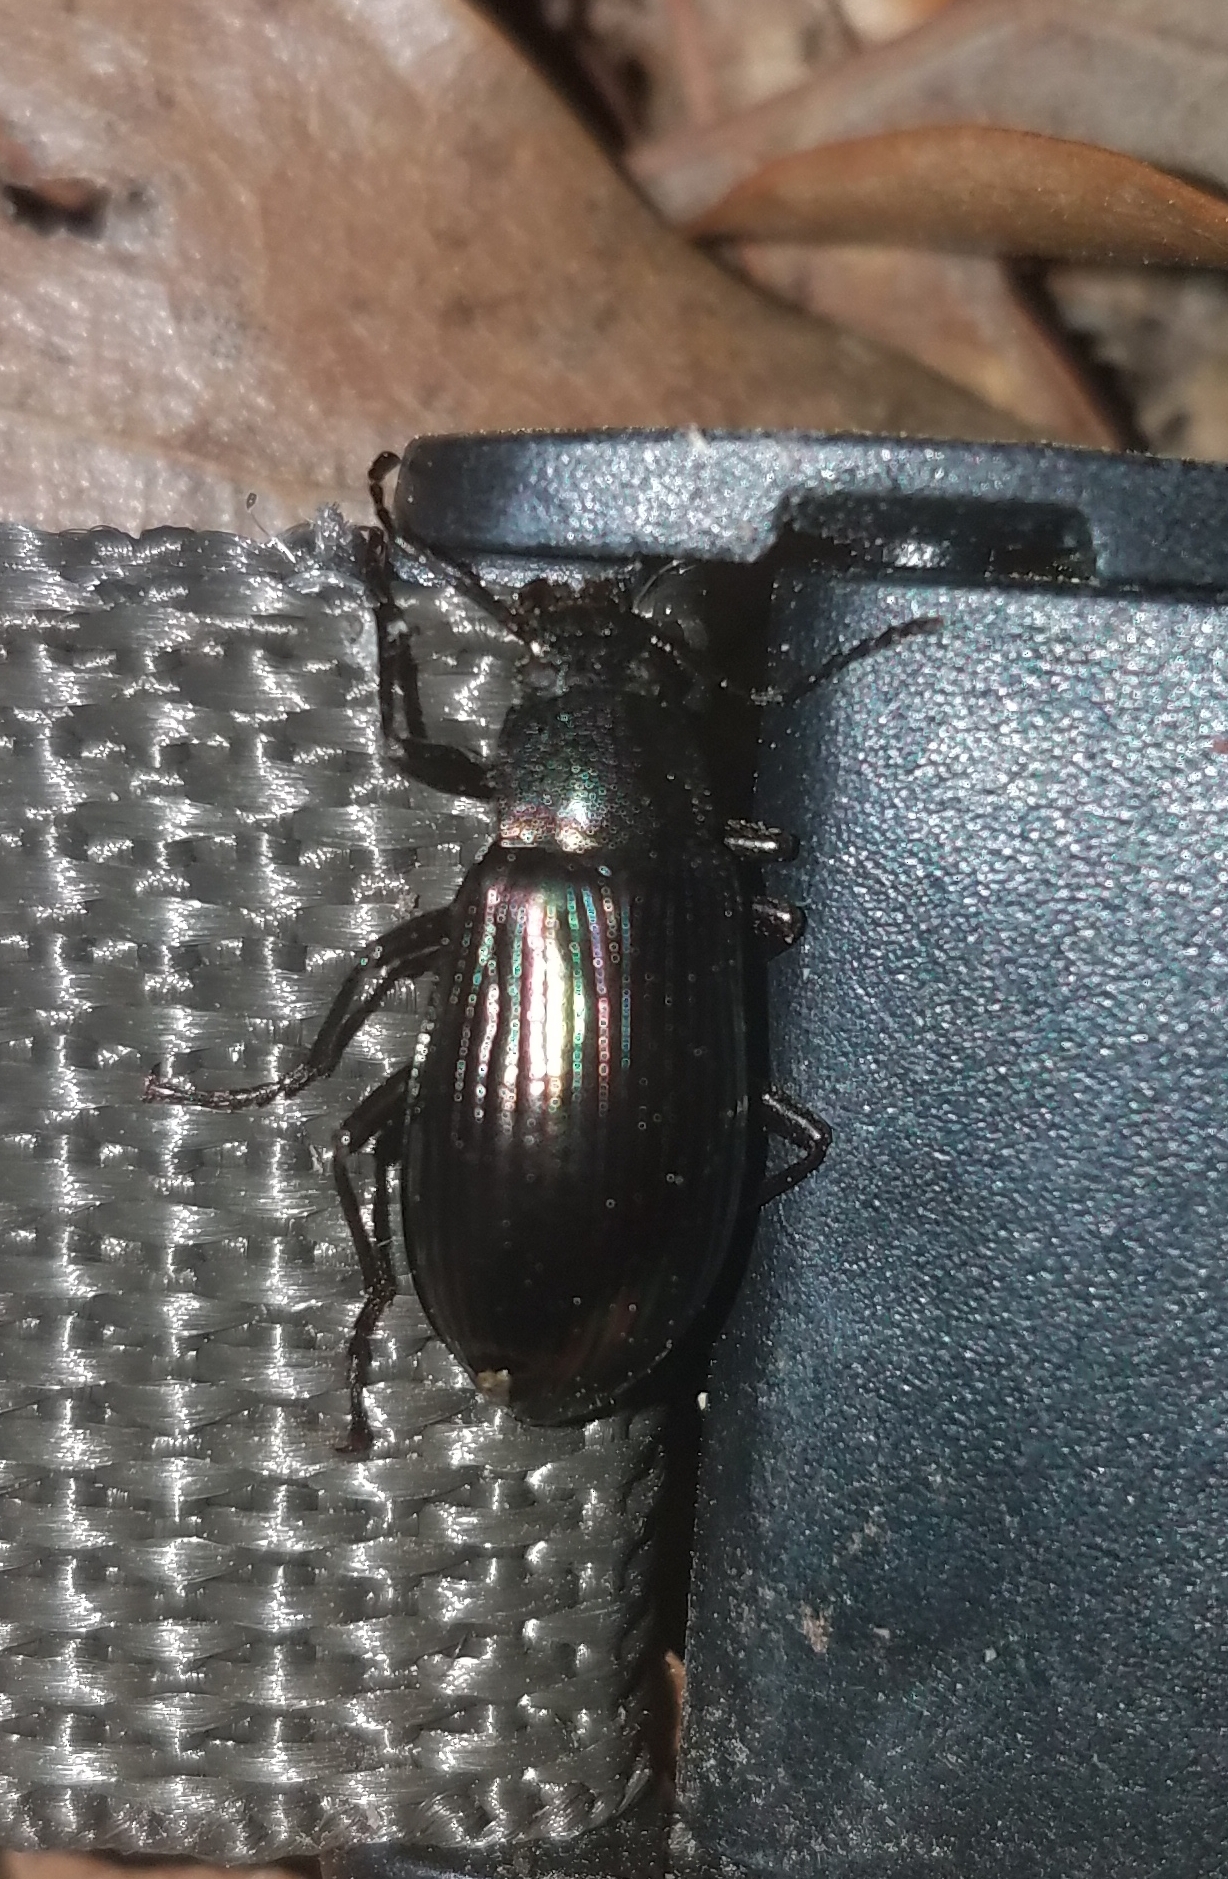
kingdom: Animalia
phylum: Arthropoda
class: Insecta
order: Coleoptera
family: Tenebrionidae
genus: Tarpela
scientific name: Tarpela micans
